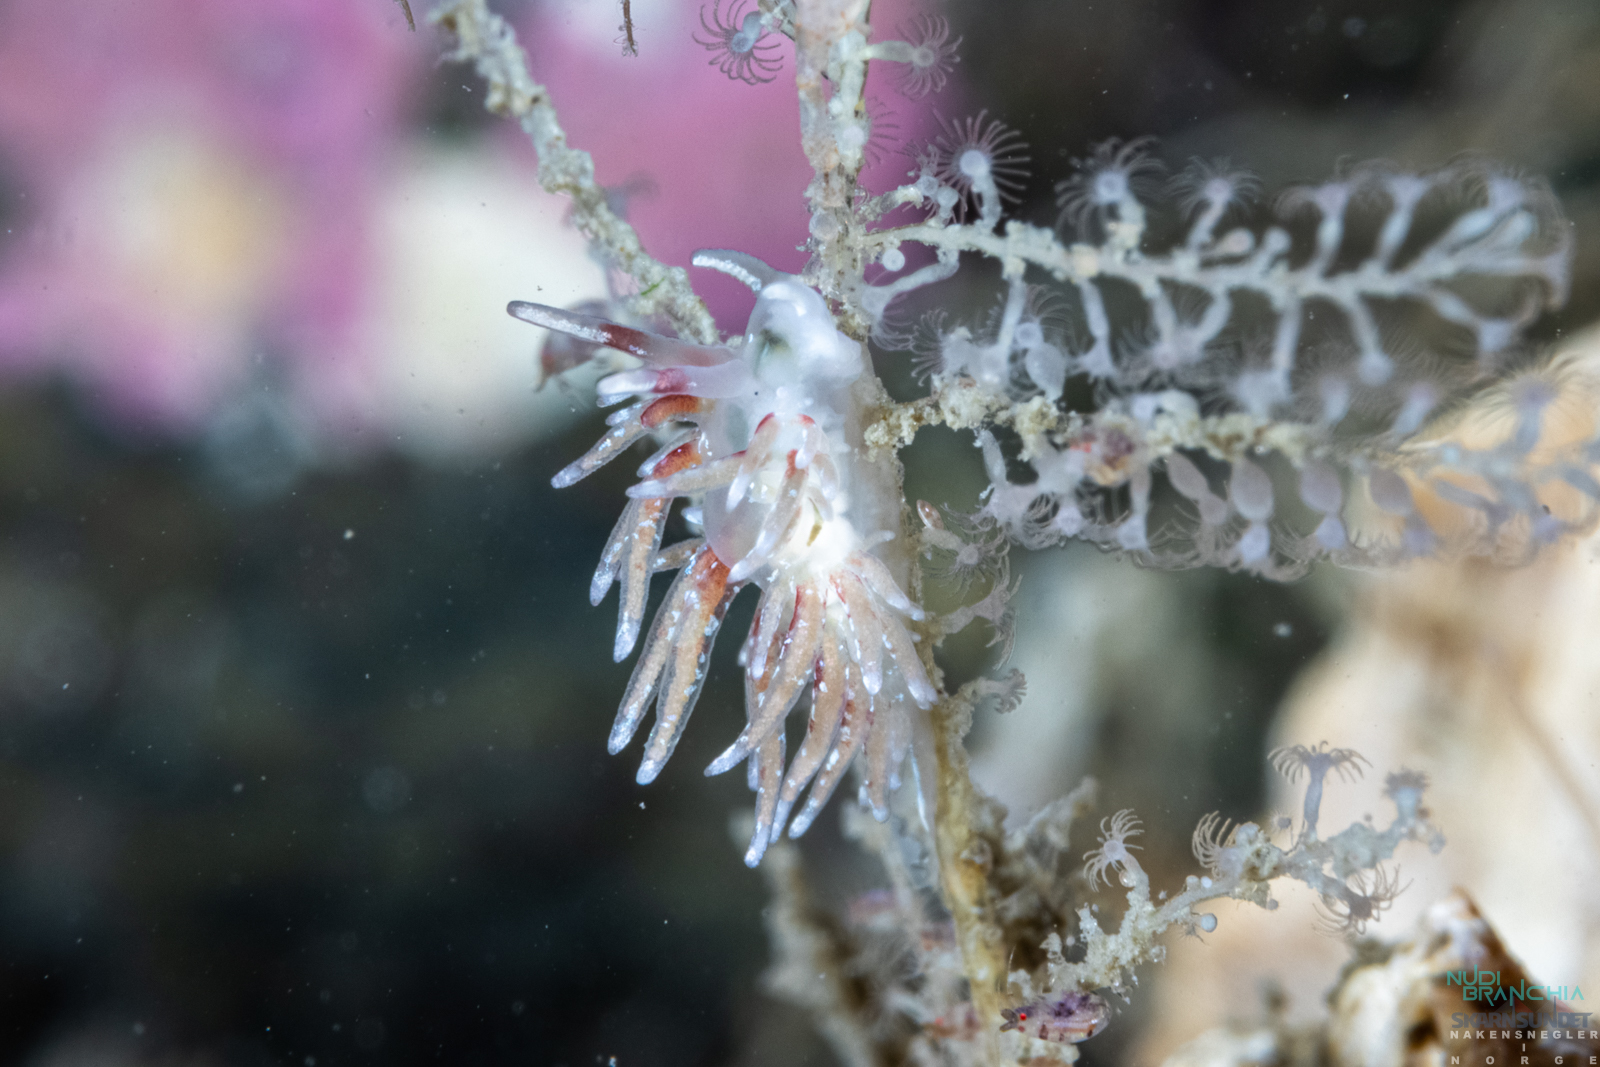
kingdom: Animalia
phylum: Mollusca
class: Gastropoda
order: Nudibranchia
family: Trinchesiidae
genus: Rubramoena
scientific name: Rubramoena rubescens
